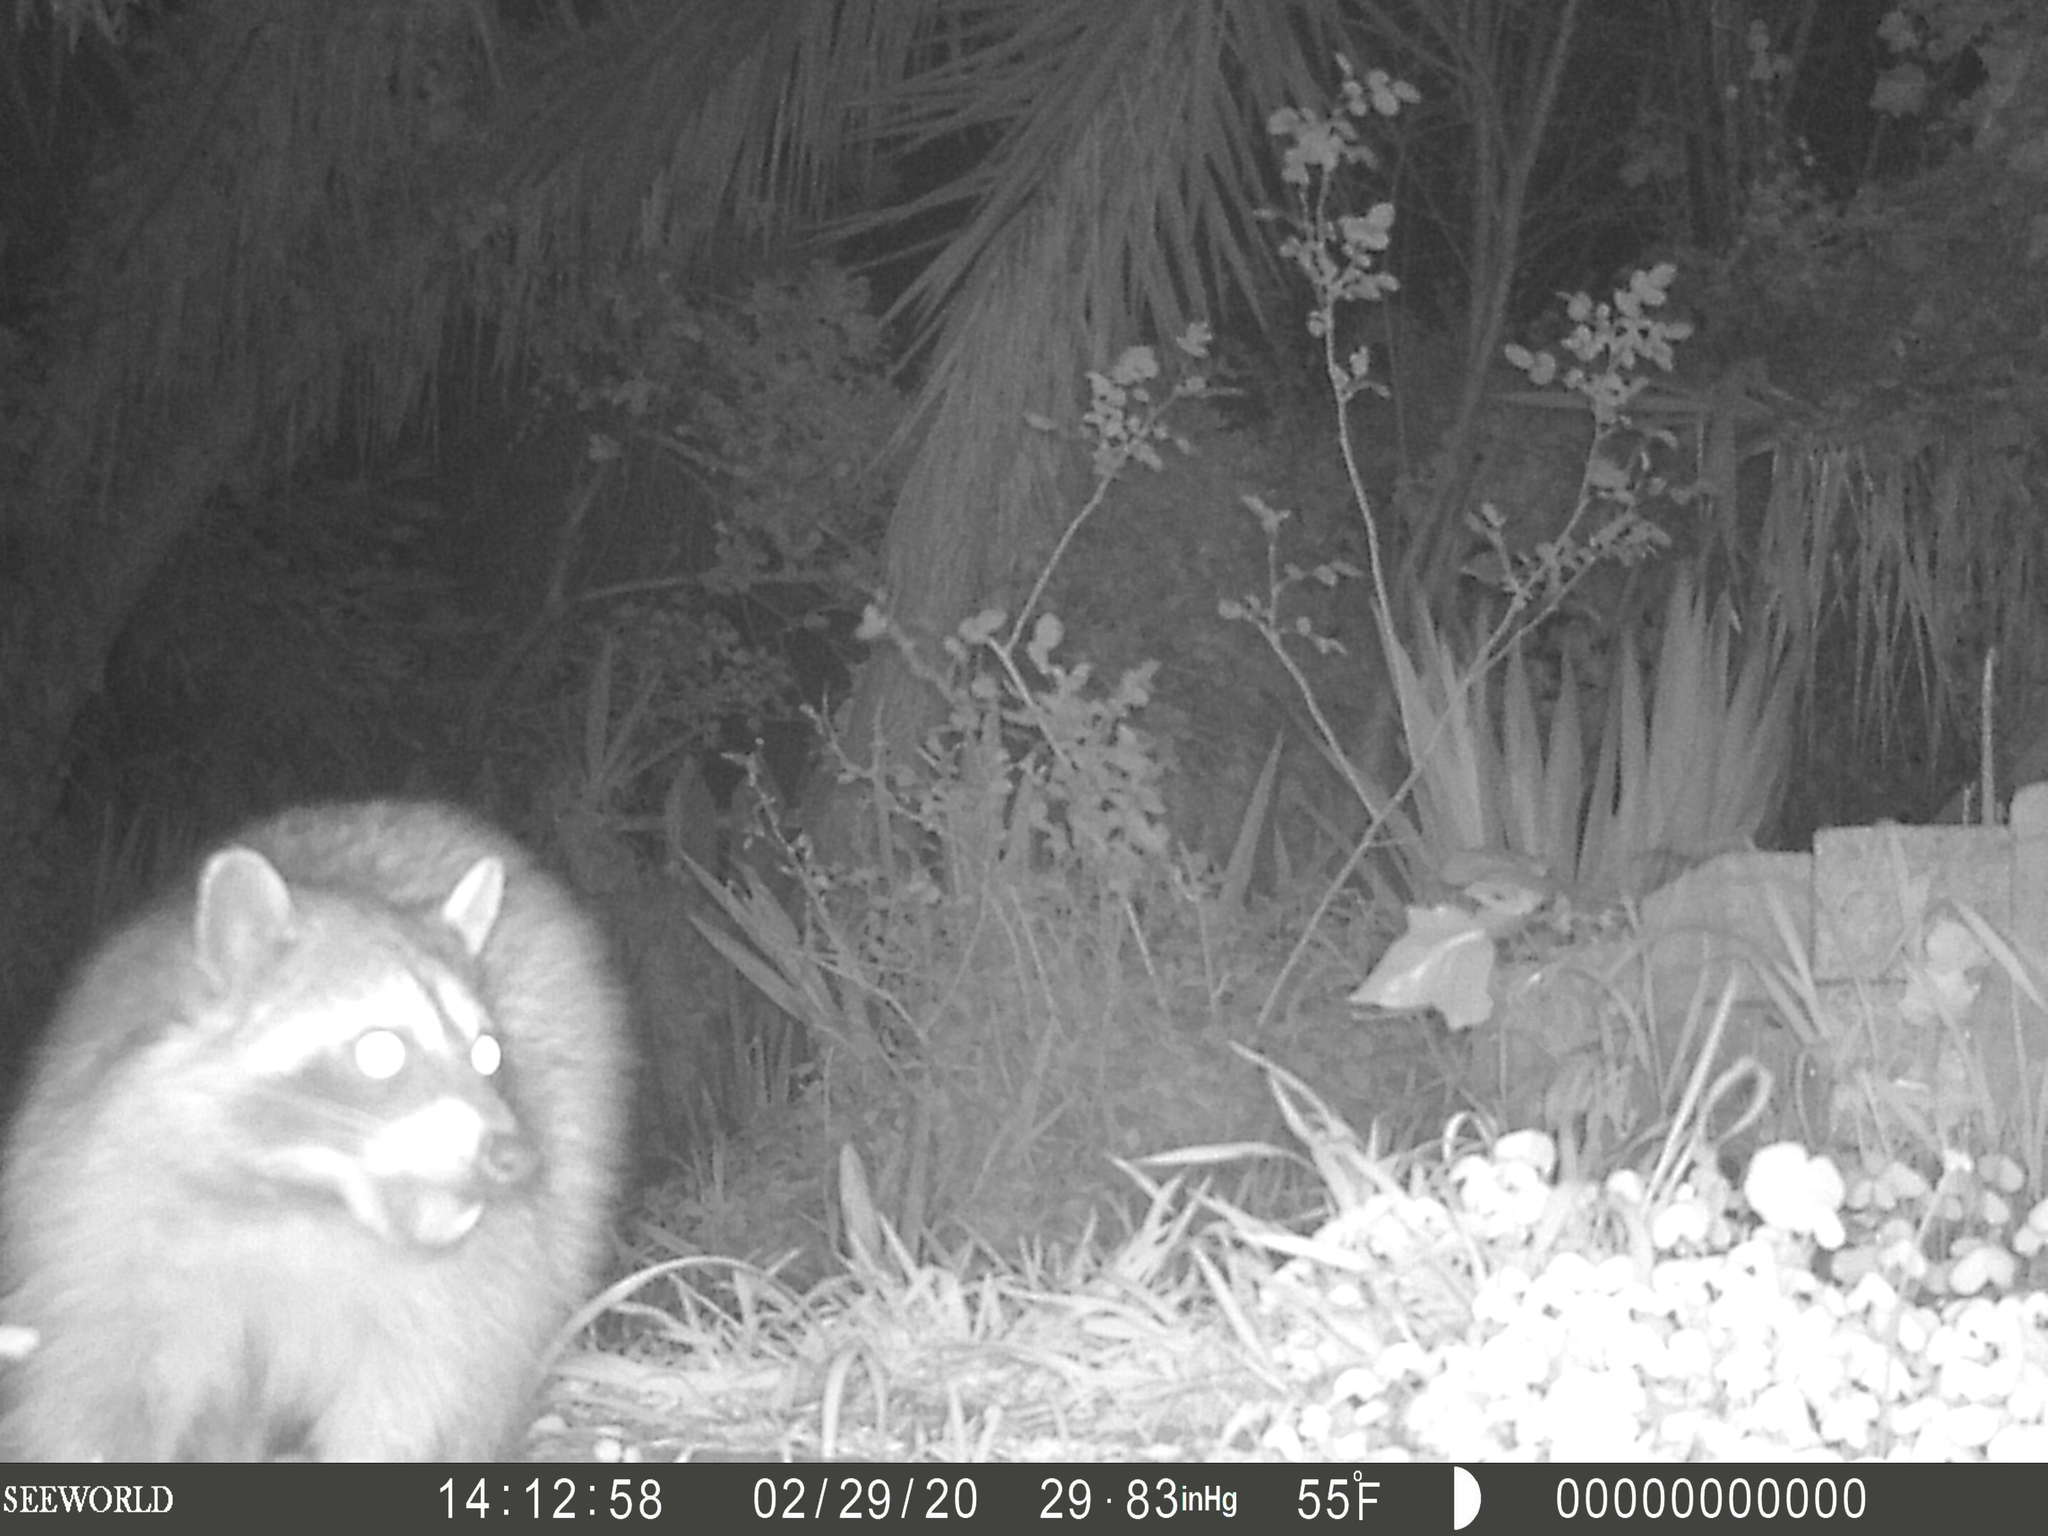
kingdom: Animalia
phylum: Chordata
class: Mammalia
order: Carnivora
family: Procyonidae
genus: Procyon
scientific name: Procyon lotor
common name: Raccoon
